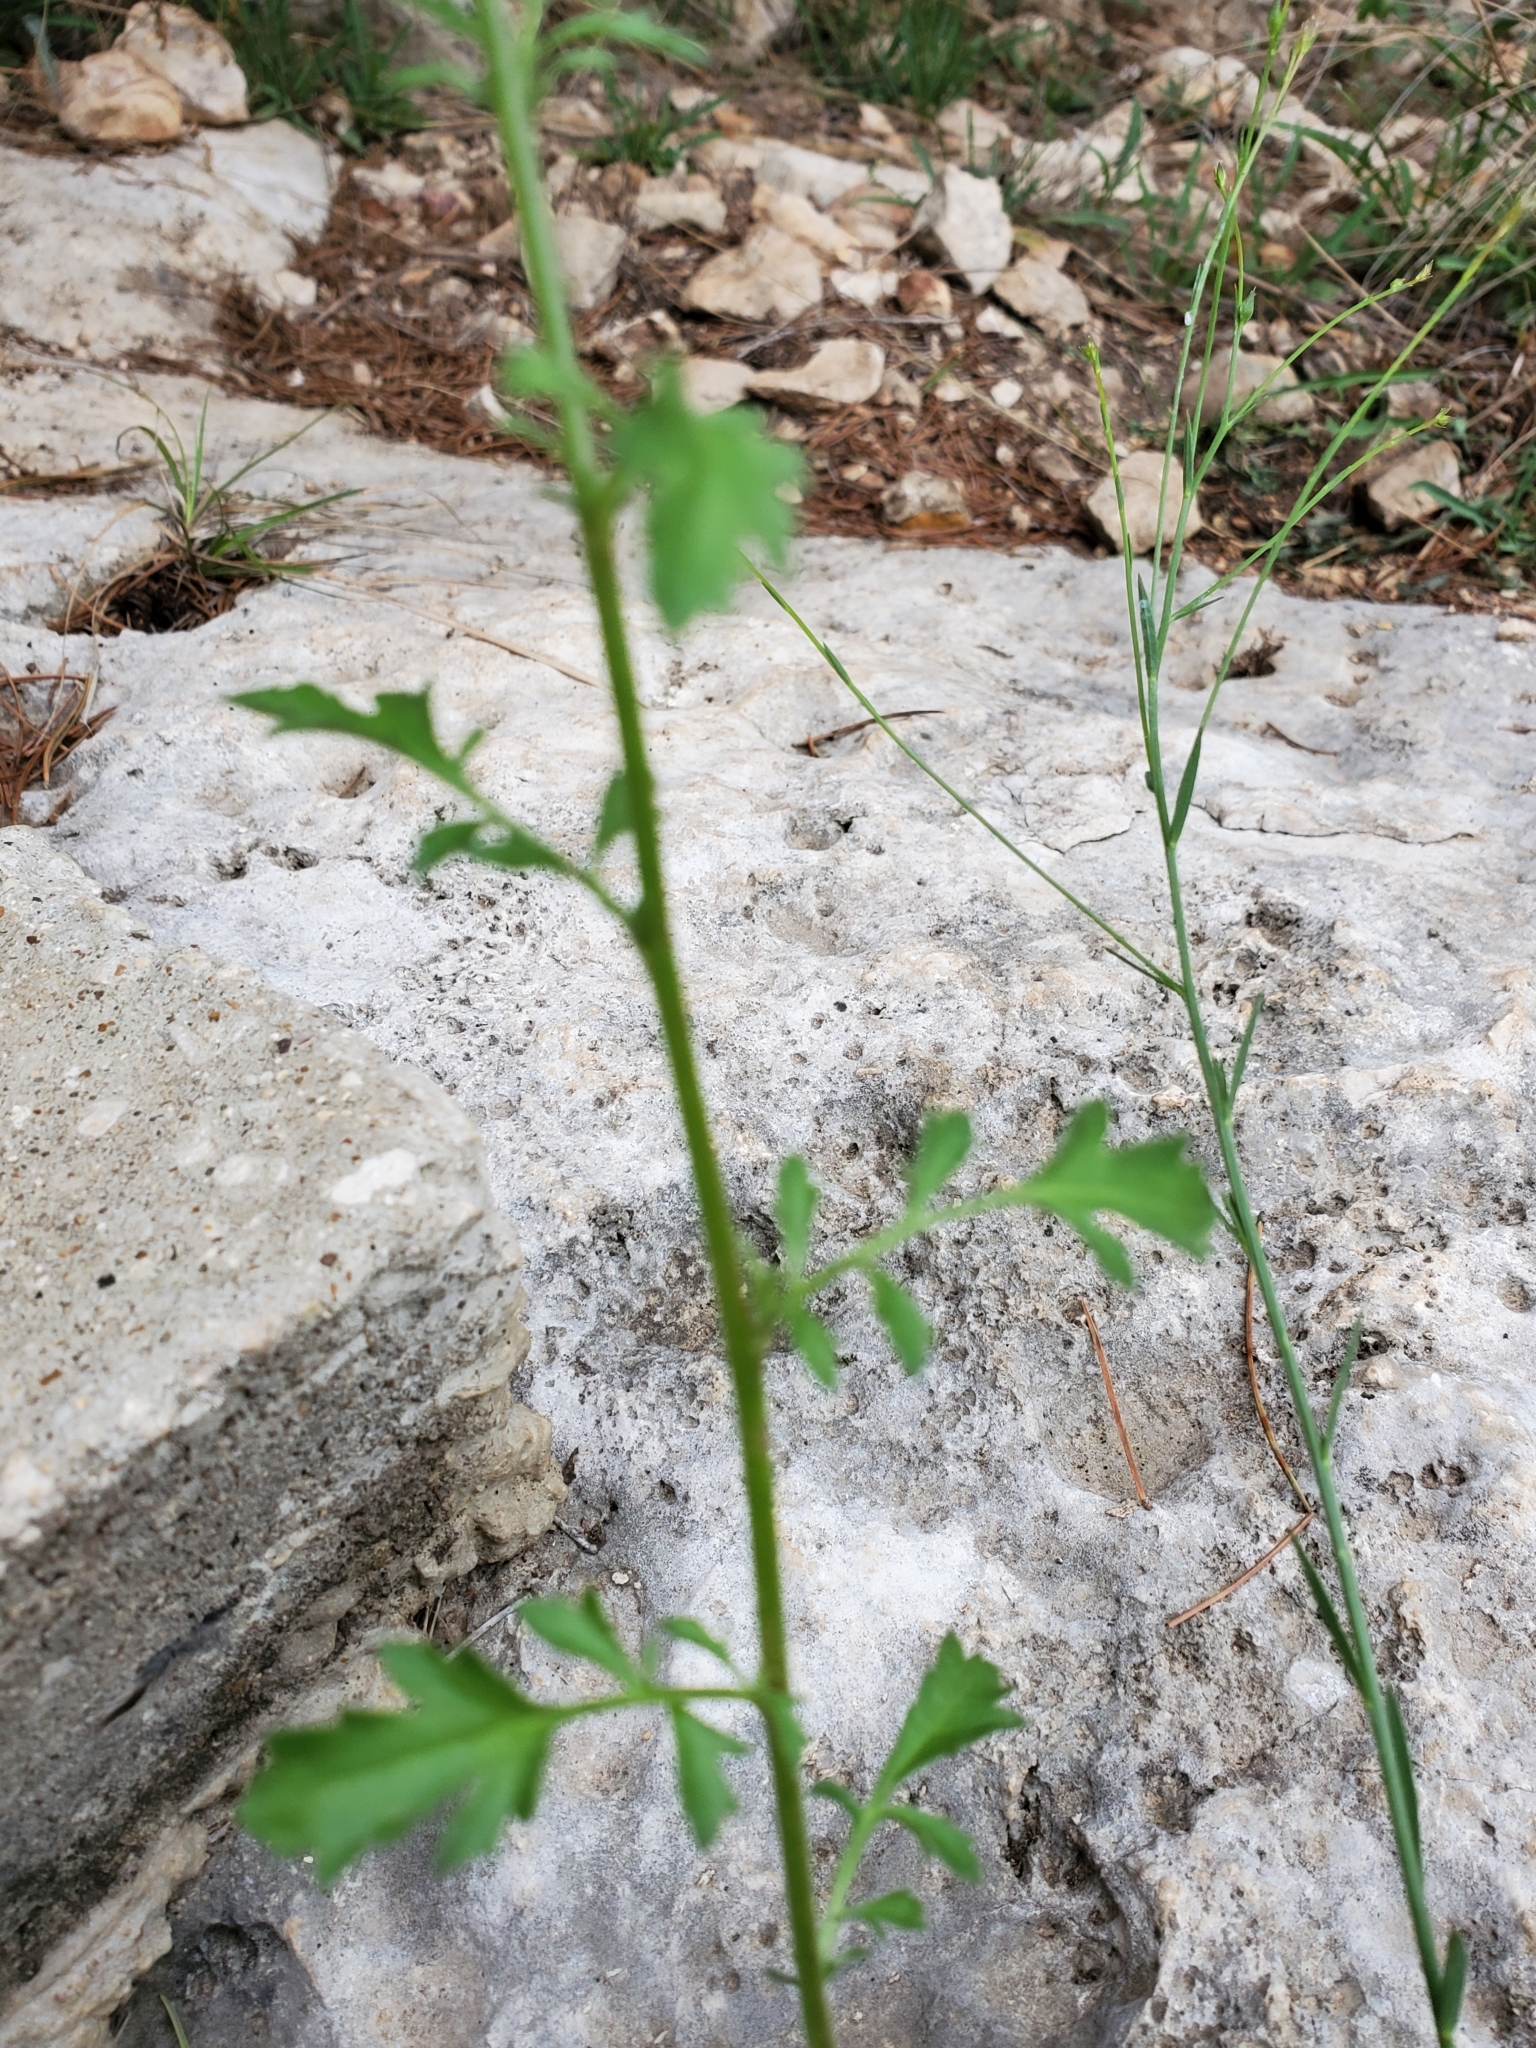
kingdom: Plantae
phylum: Tracheophyta
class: Magnoliopsida
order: Ericales
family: Polemoniaceae
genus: Giliastrum
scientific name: Giliastrum incisum
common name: Splitleaf gilia
